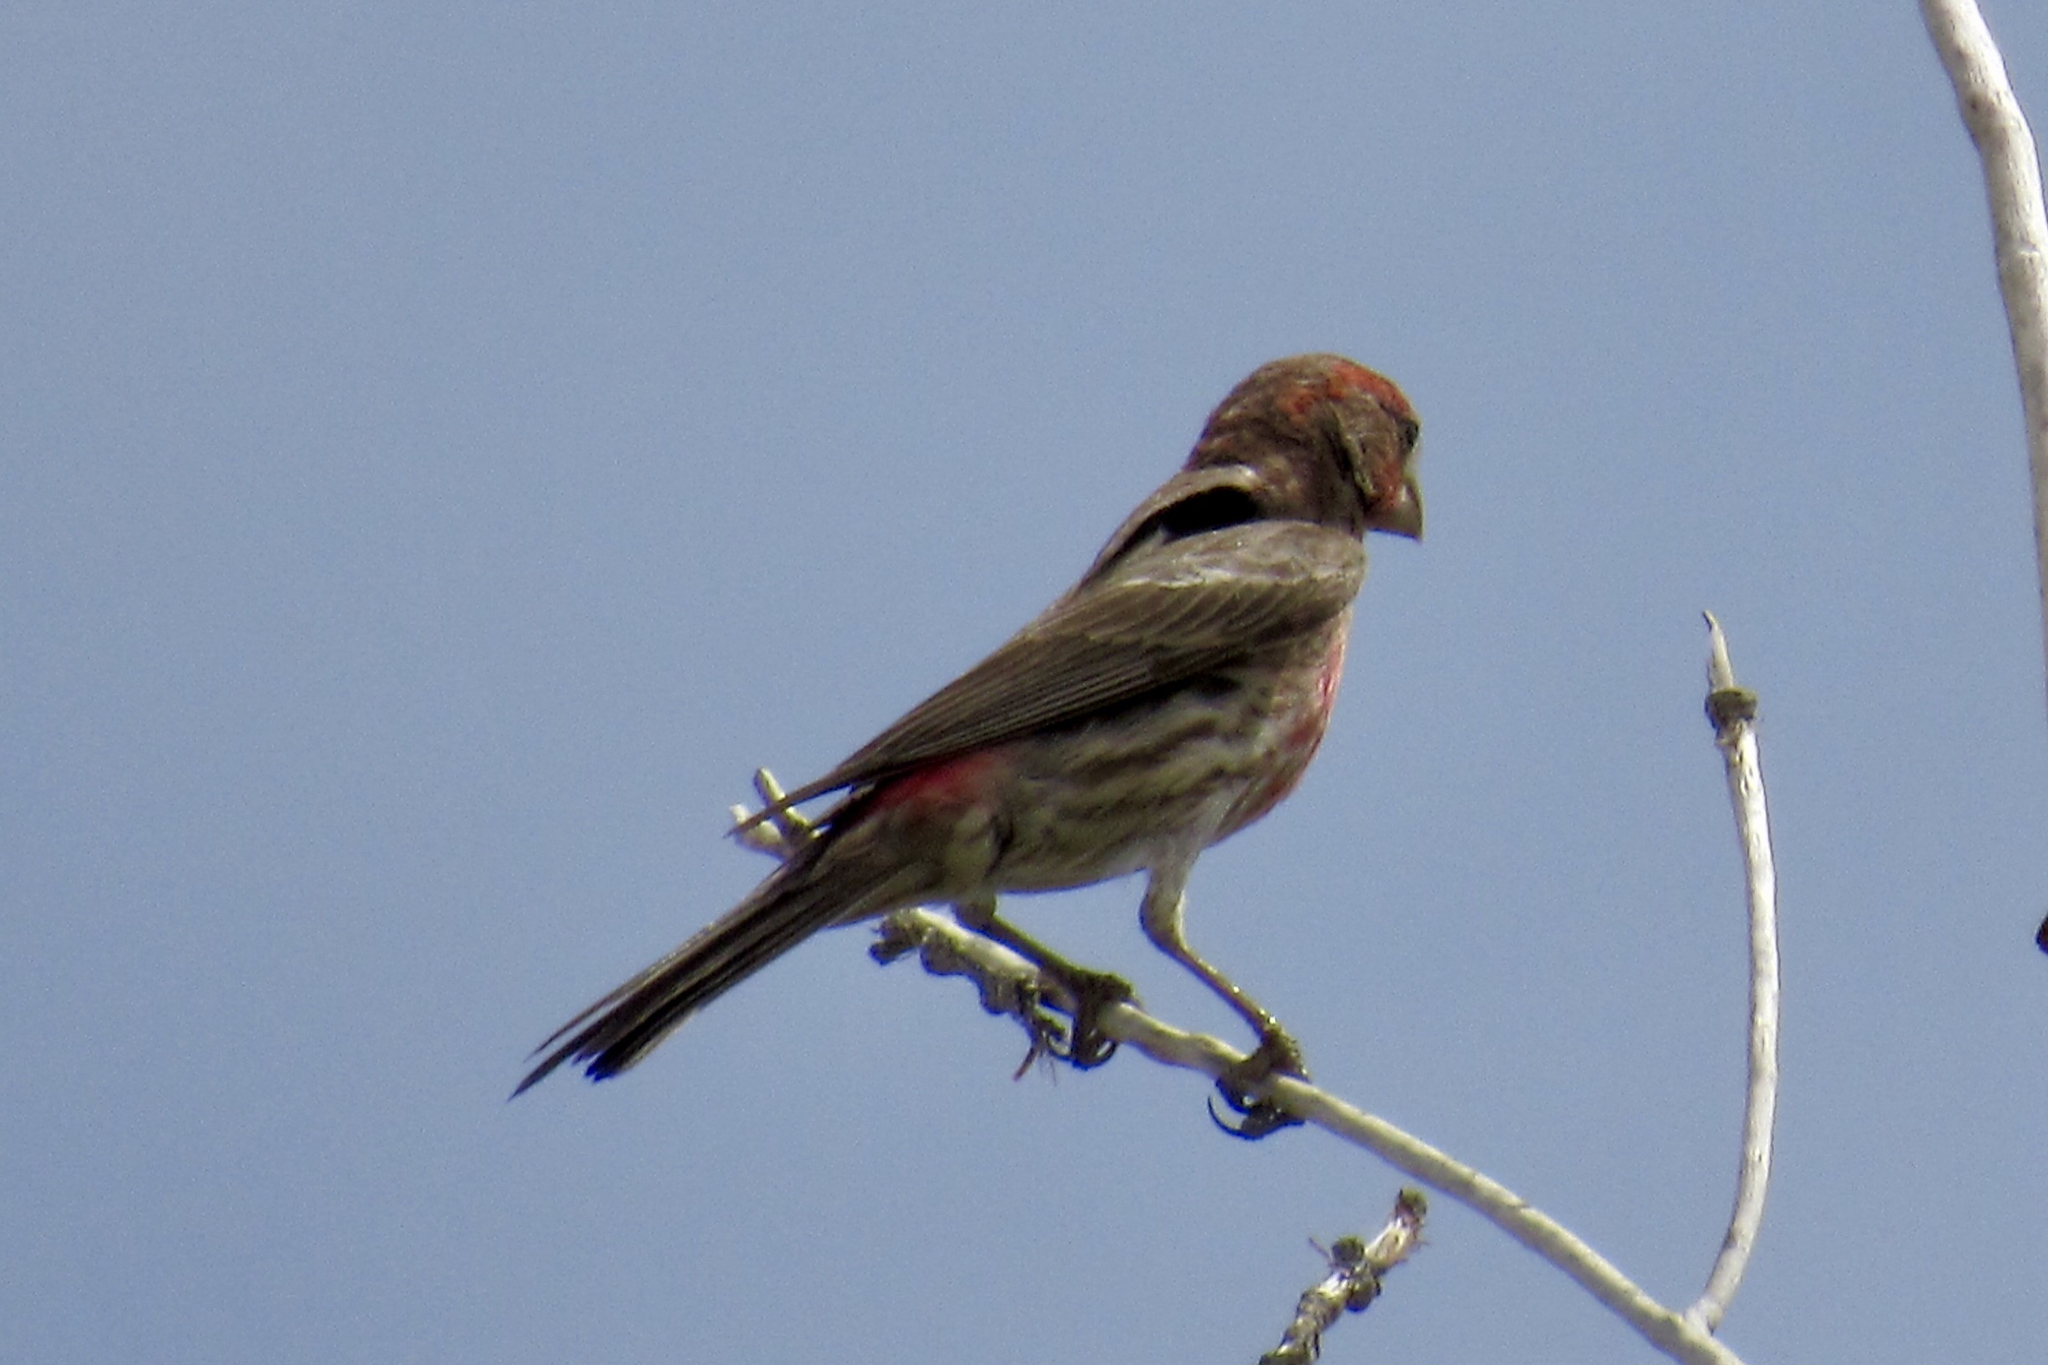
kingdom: Animalia
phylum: Chordata
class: Aves
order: Passeriformes
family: Fringillidae
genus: Haemorhous
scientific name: Haemorhous mexicanus
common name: House finch
